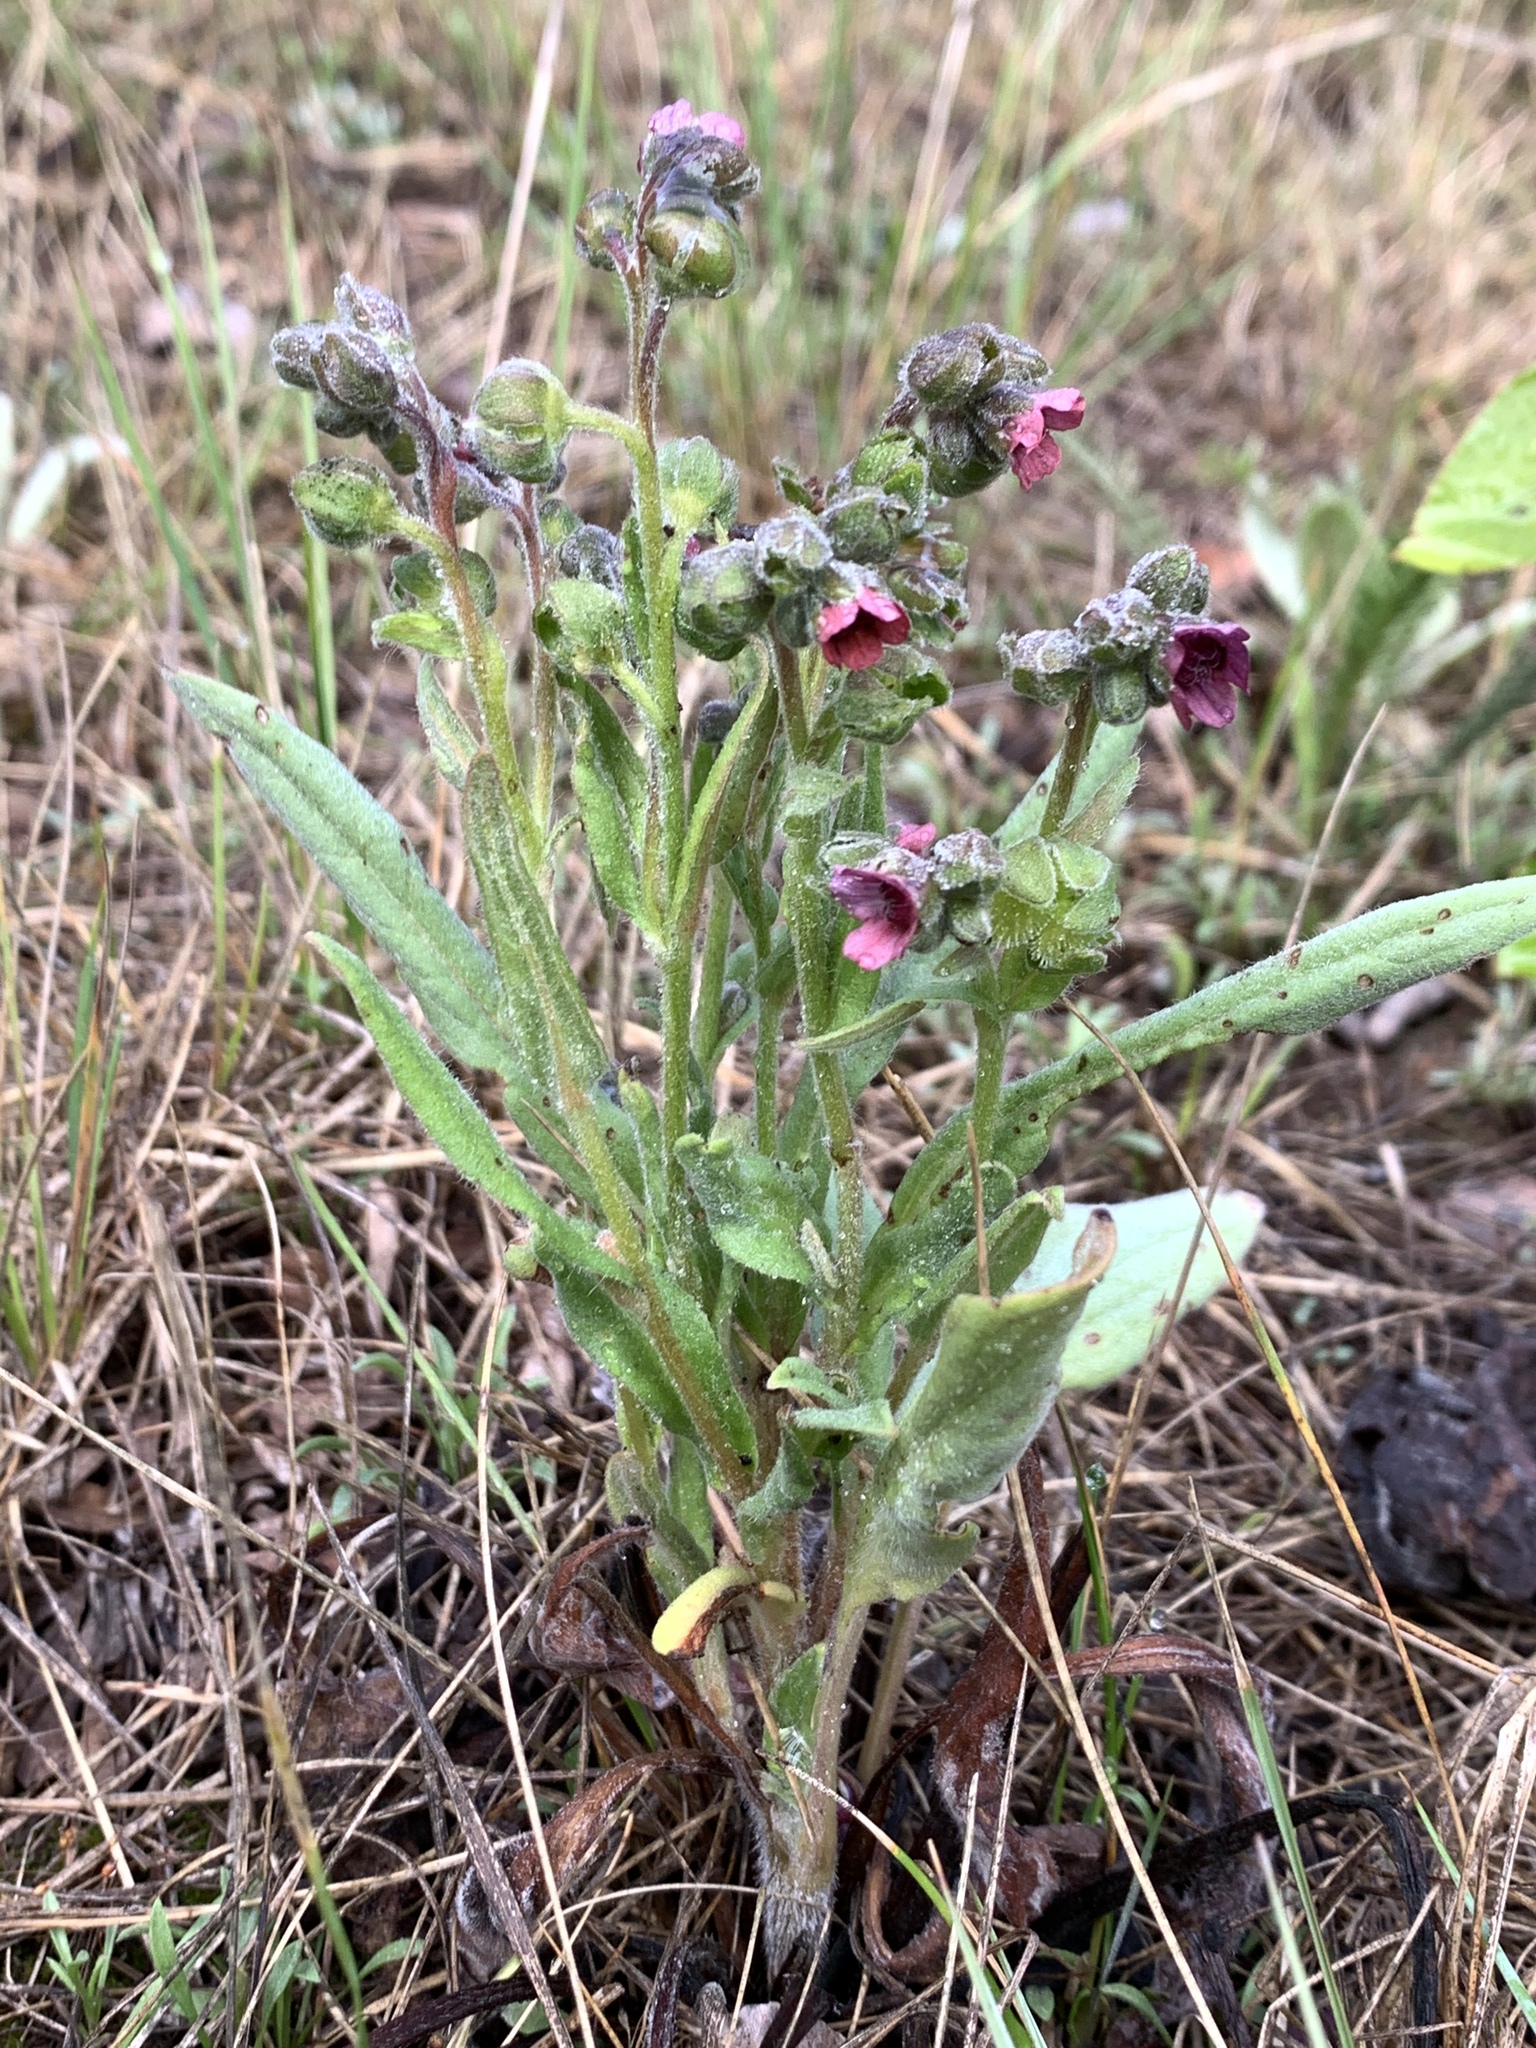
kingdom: Plantae
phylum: Tracheophyta
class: Magnoliopsida
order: Boraginales
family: Boraginaceae
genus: Cynoglossum
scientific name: Cynoglossum officinale
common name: Hound's-tongue
